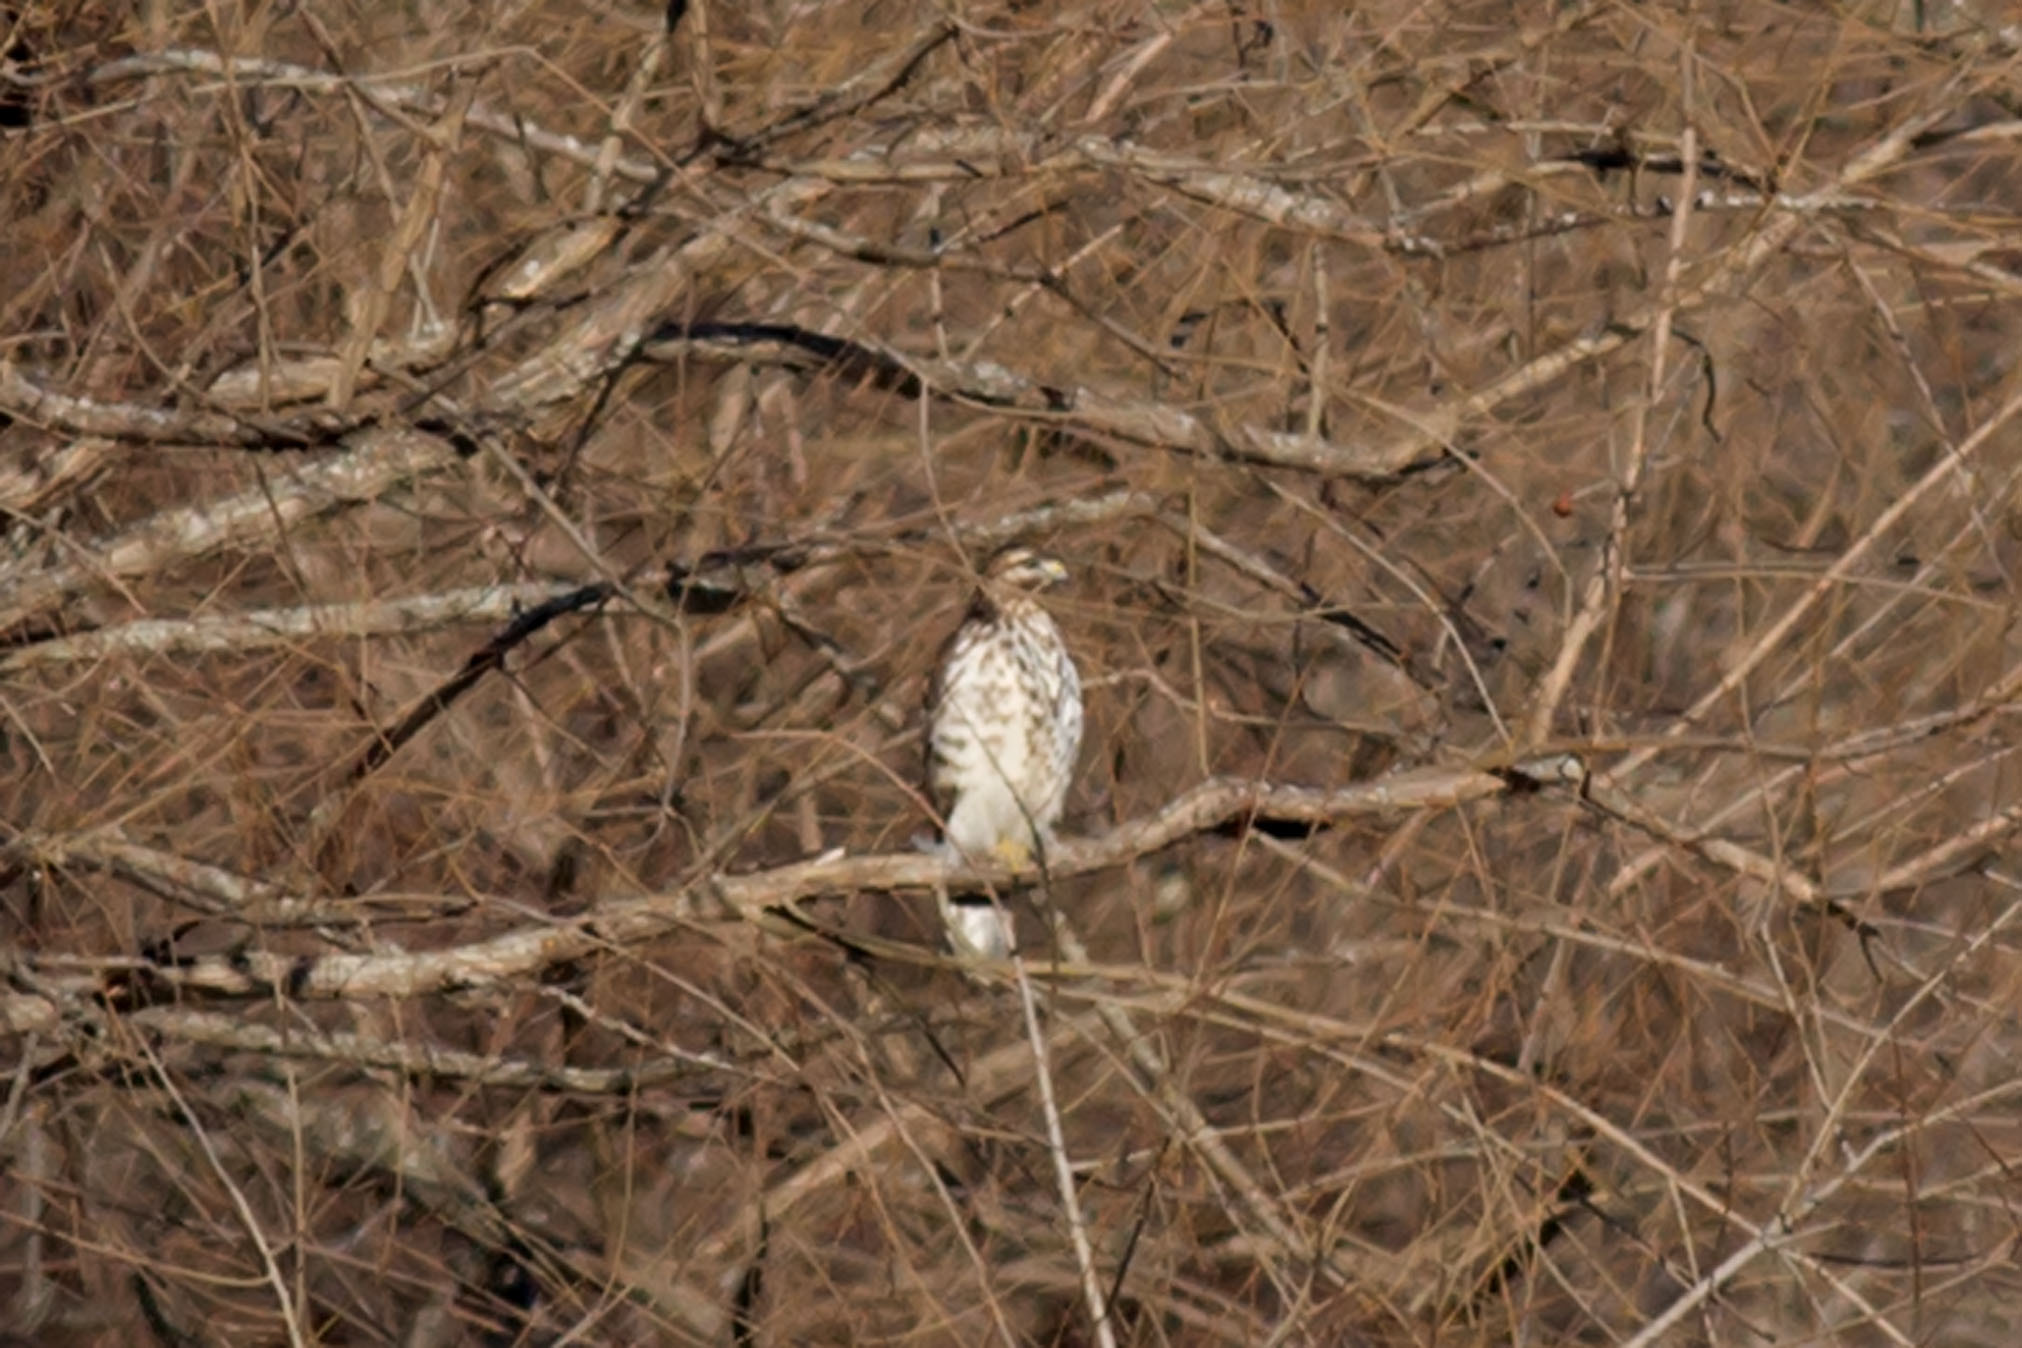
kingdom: Animalia
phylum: Chordata
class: Aves
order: Accipitriformes
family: Accipitridae
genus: Buteo
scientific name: Buteo lineatus
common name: Red-shouldered hawk
